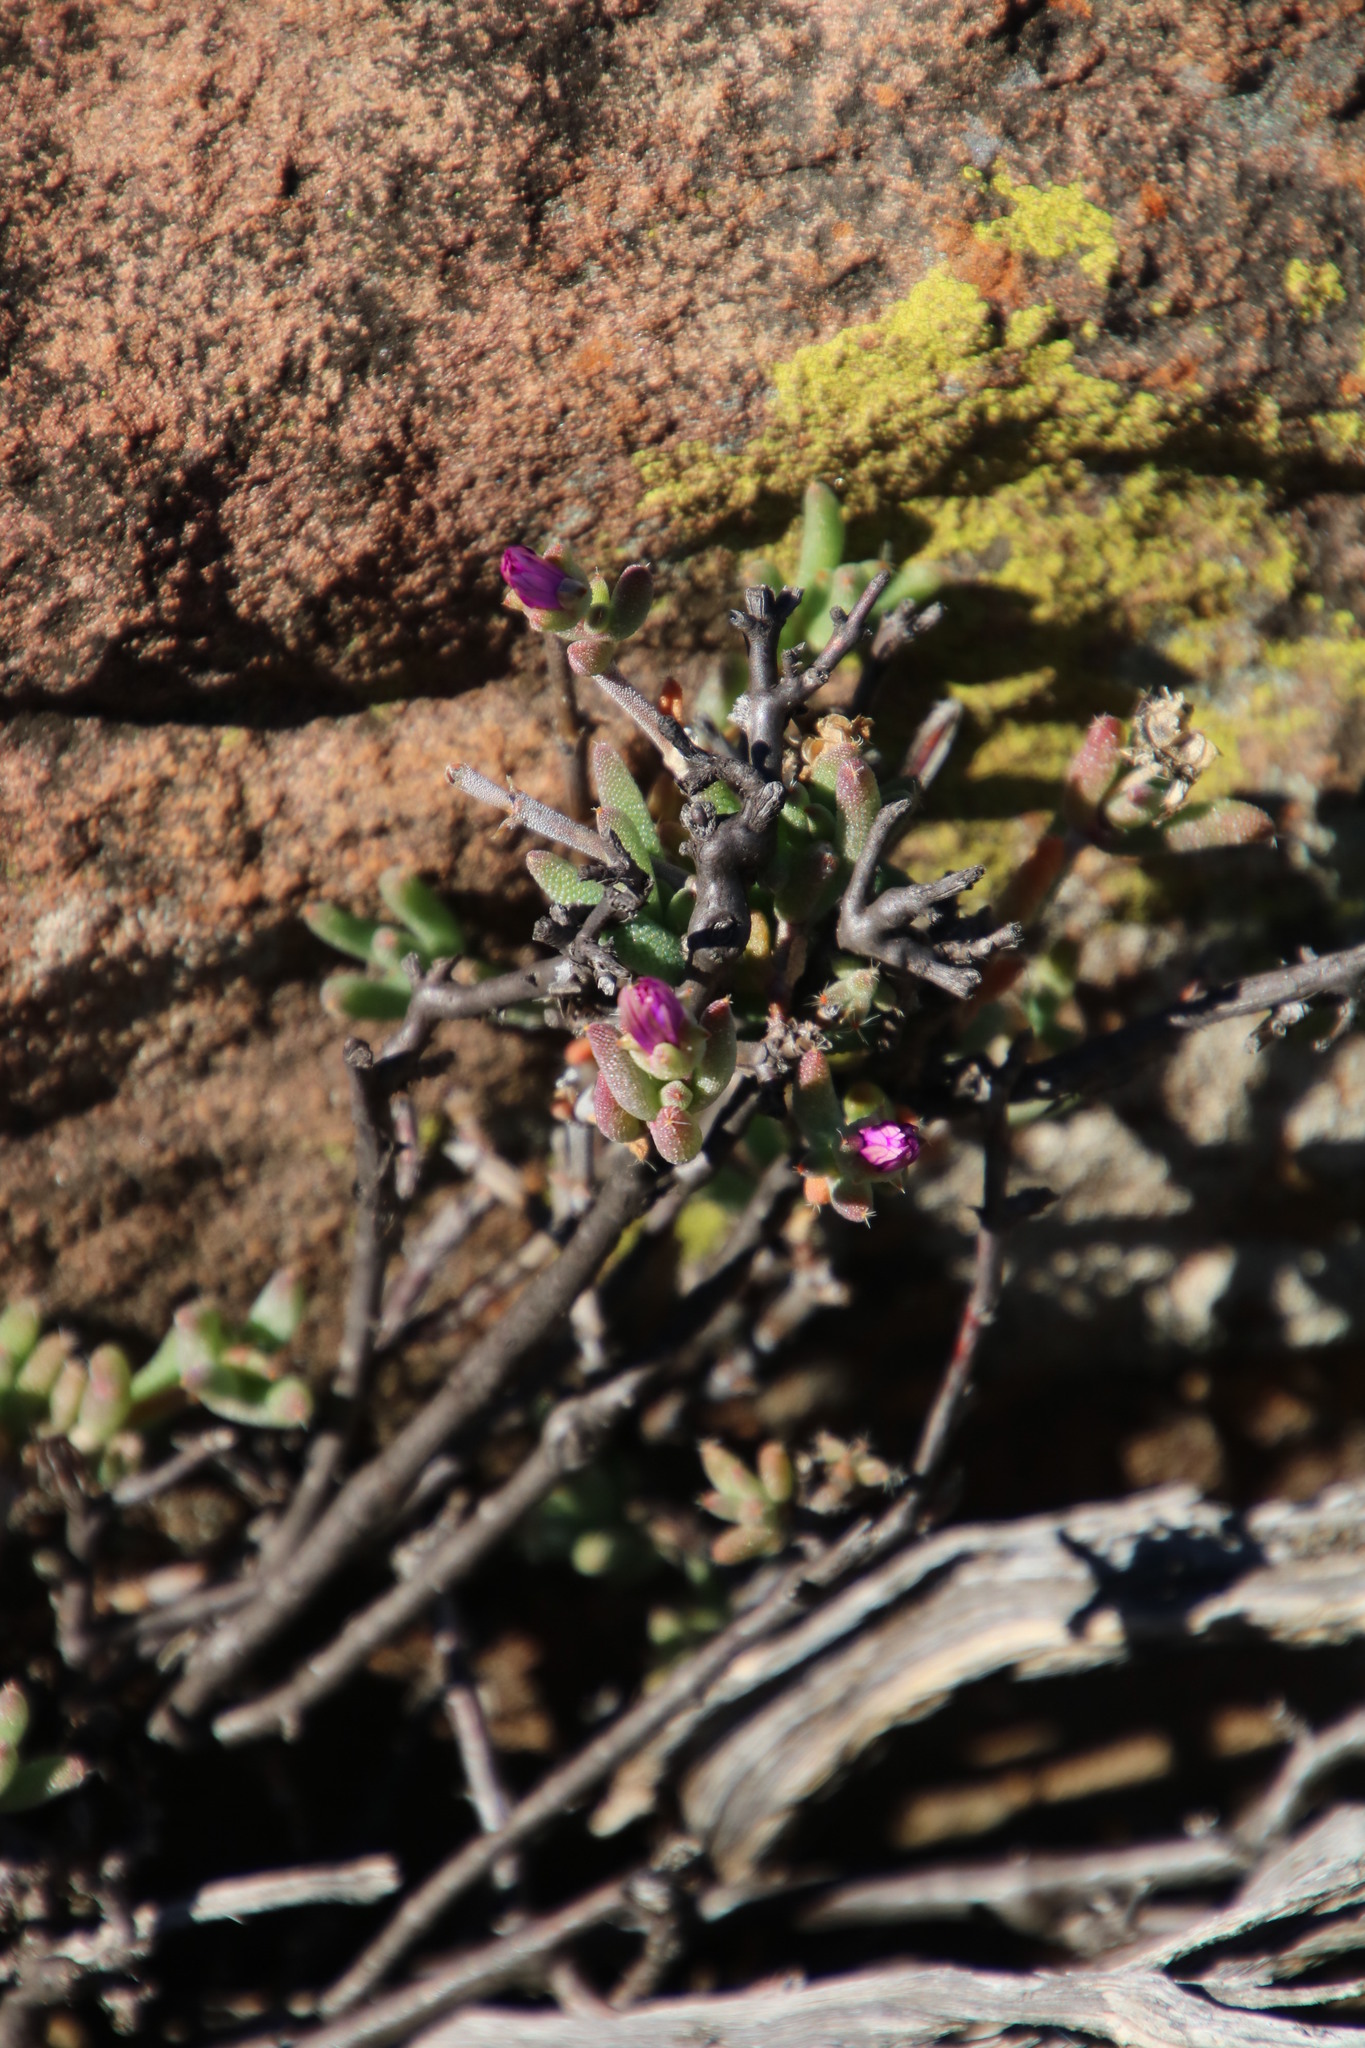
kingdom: Plantae
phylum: Tracheophyta
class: Magnoliopsida
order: Caryophyllales
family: Aizoaceae
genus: Trichodiadema
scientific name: Trichodiadema pomeridianum
